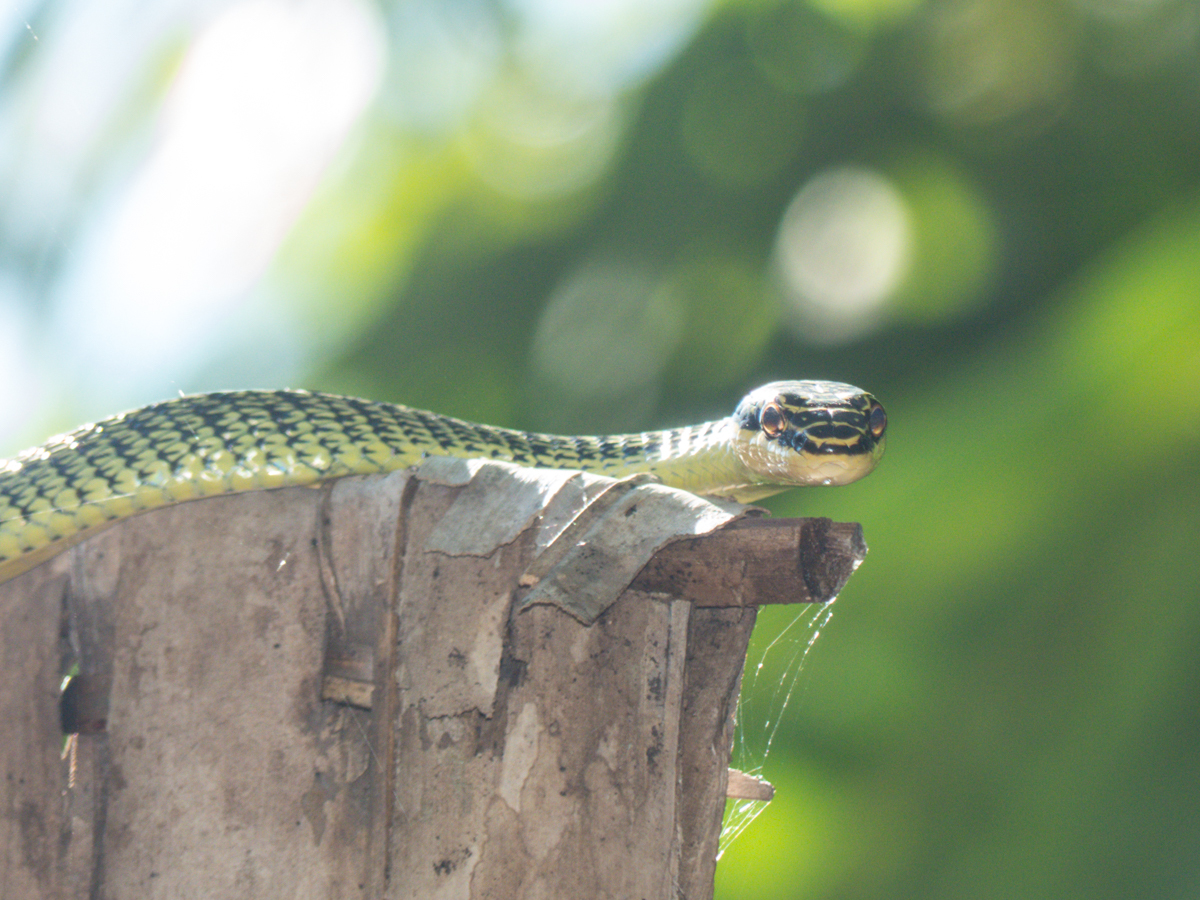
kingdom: Animalia
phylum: Chordata
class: Squamata
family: Colubridae
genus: Chrysopelea
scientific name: Chrysopelea ornata
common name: Golden flying snake
